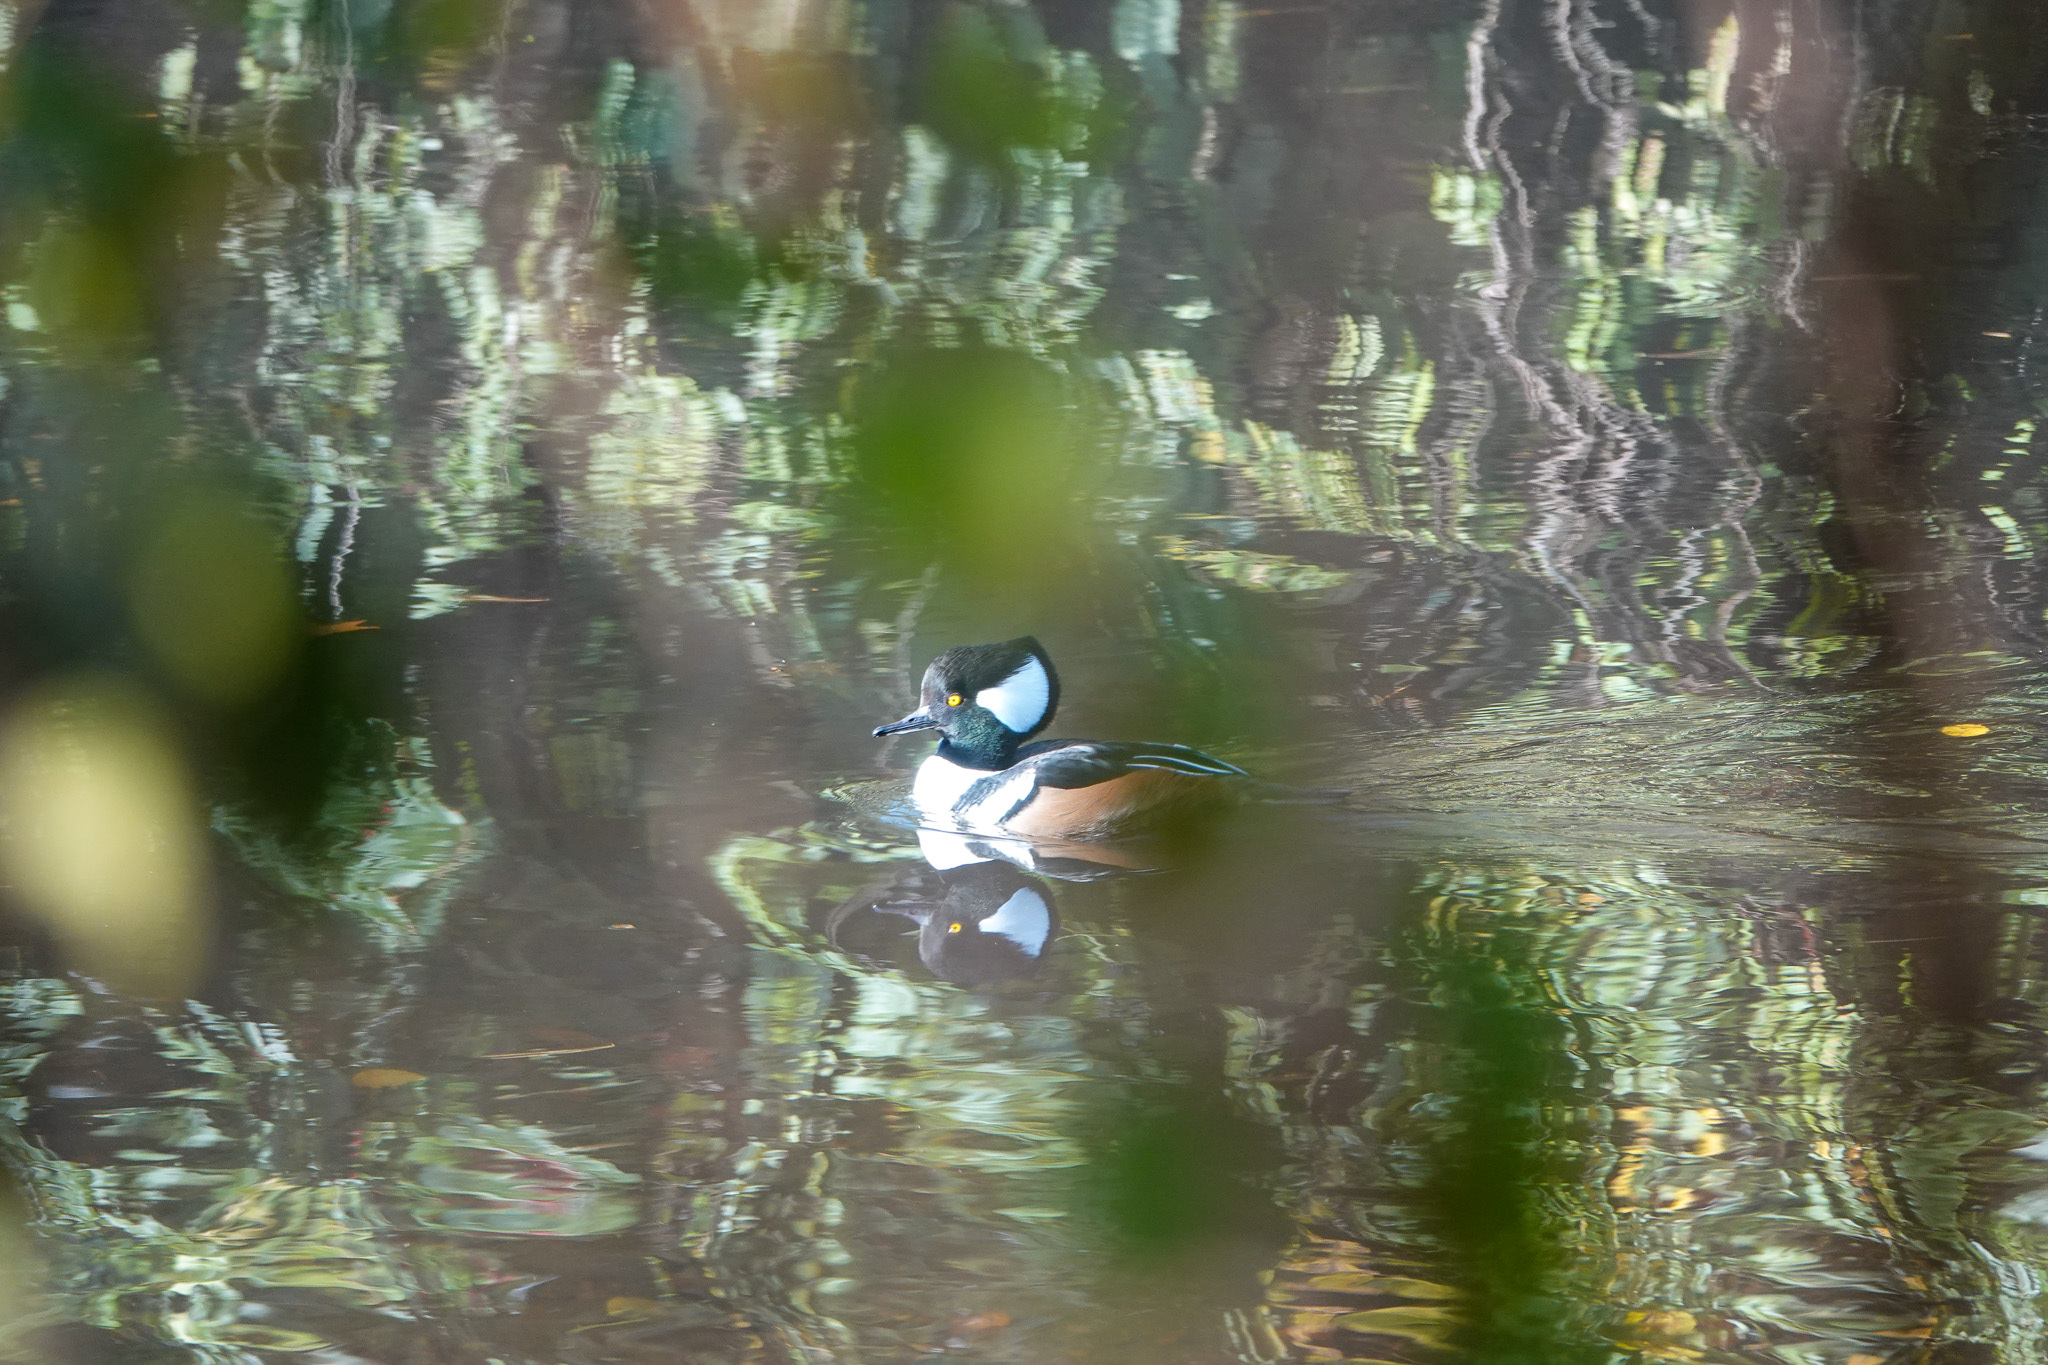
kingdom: Animalia
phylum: Chordata
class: Aves
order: Anseriformes
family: Anatidae
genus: Lophodytes
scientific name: Lophodytes cucullatus
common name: Hooded merganser
